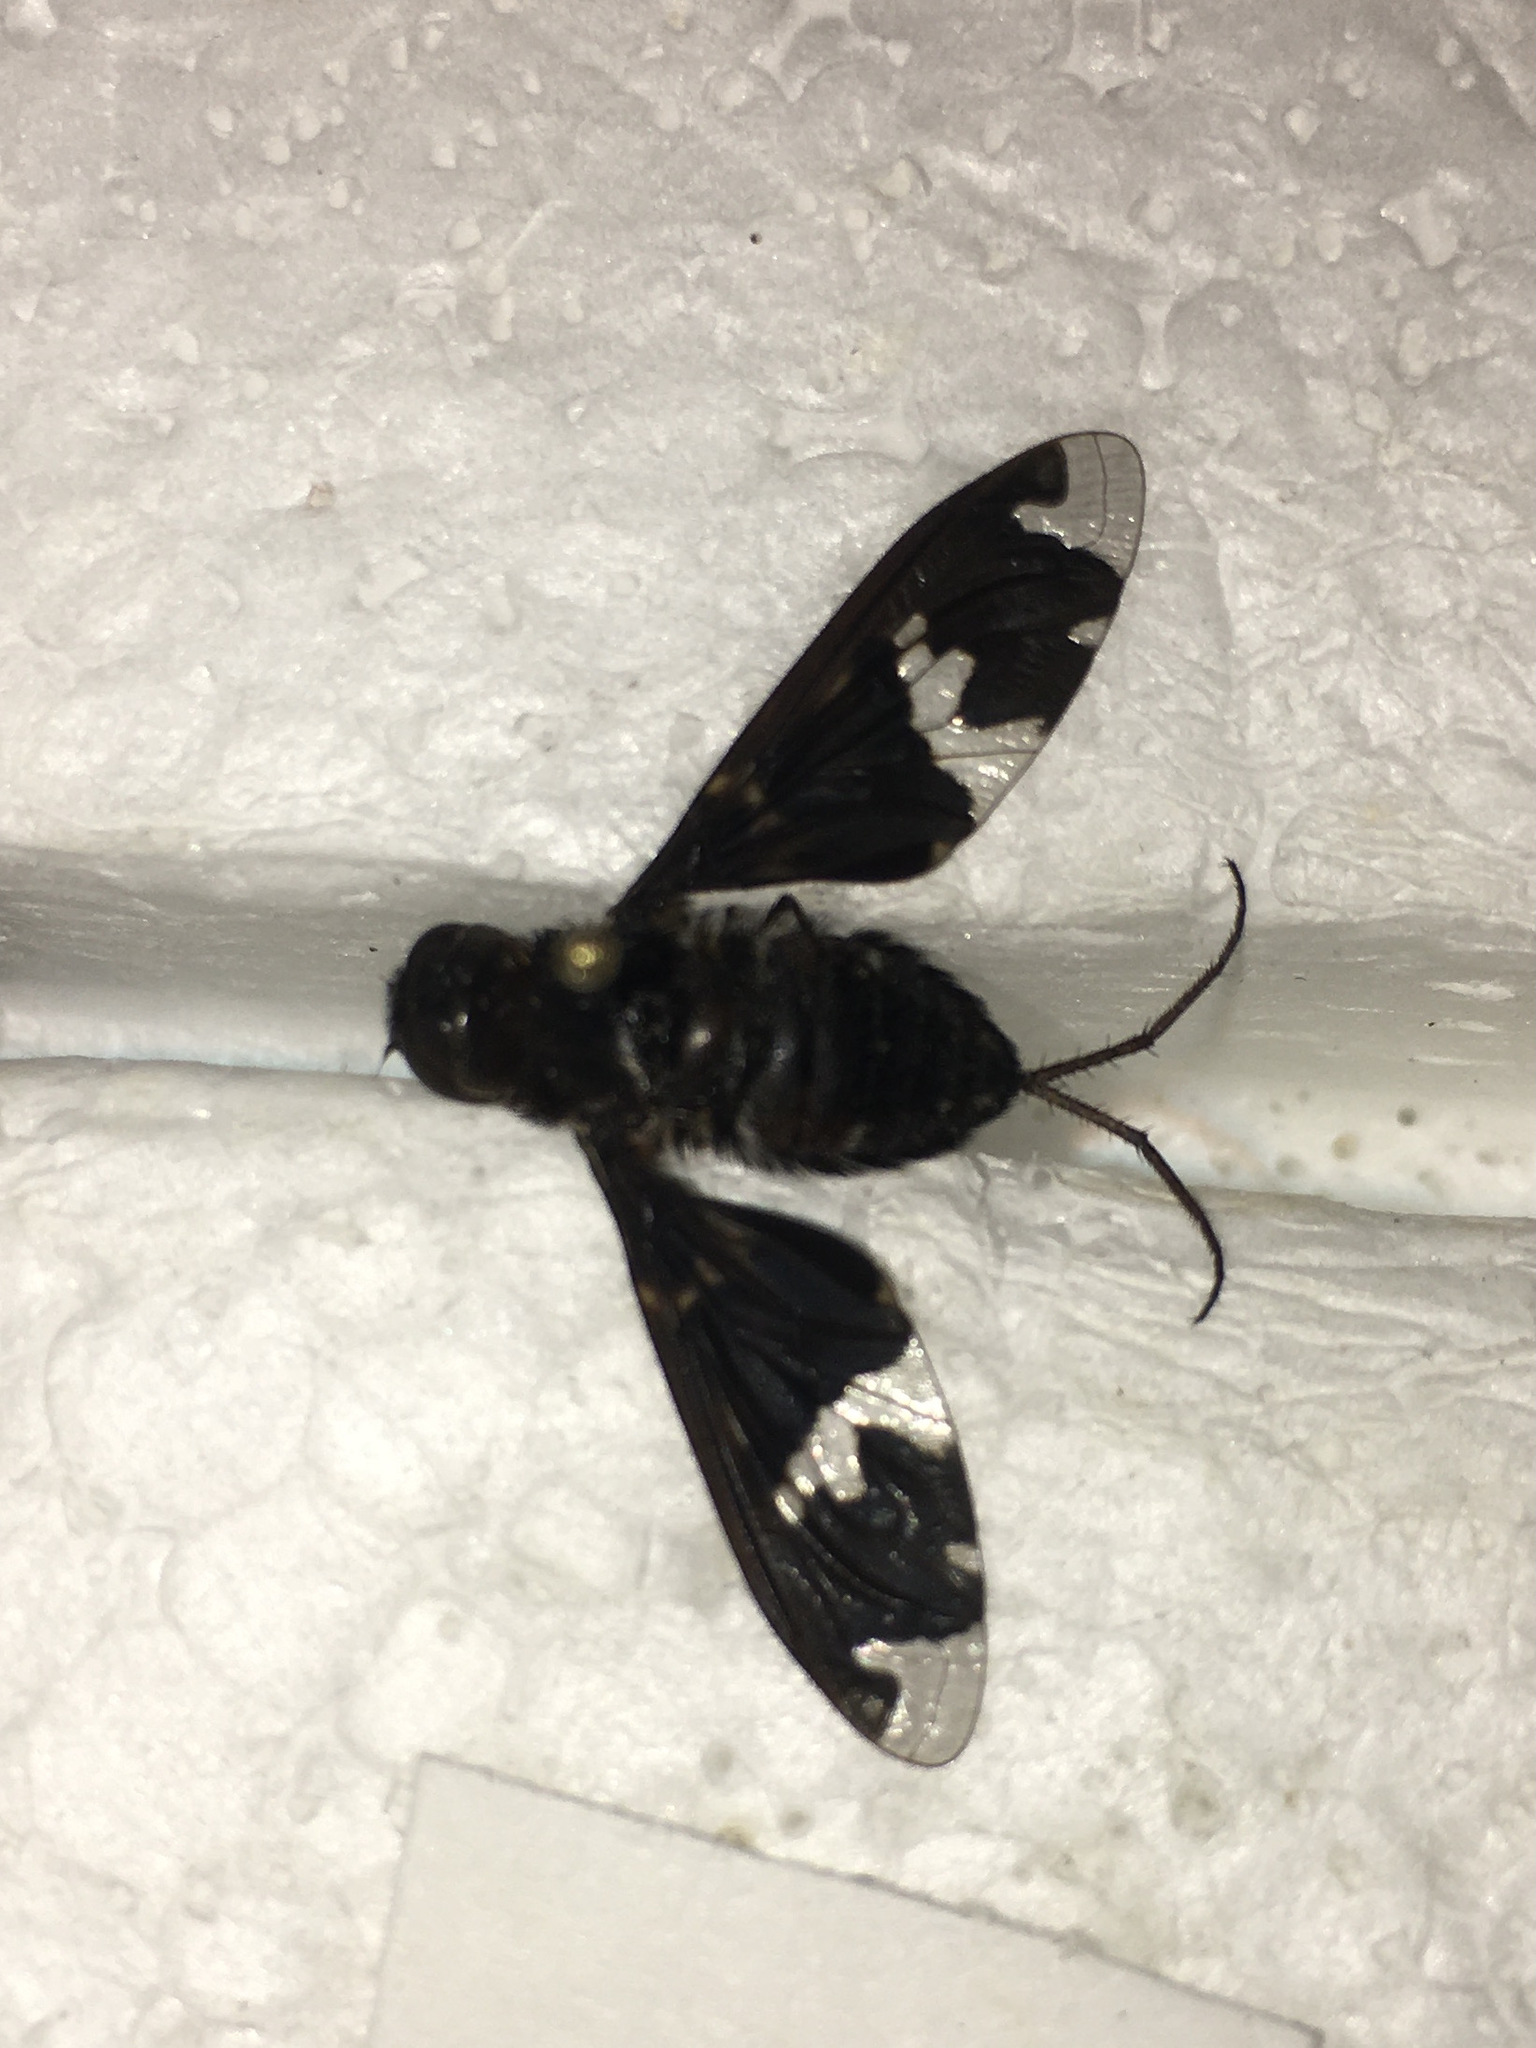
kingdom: Animalia
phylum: Arthropoda
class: Insecta
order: Diptera
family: Bombyliidae
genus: Exoprosopa
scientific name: Exoprosopa decora
